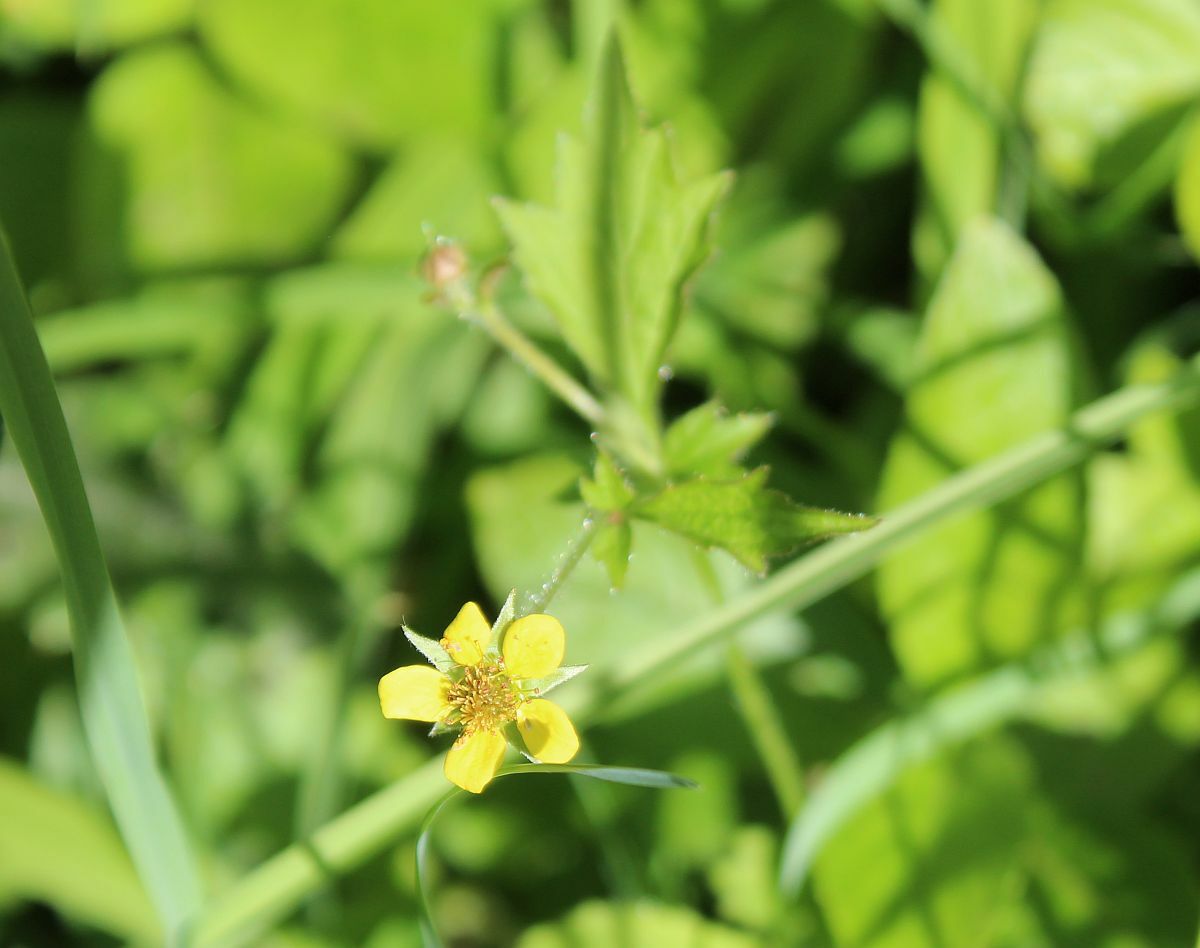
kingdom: Plantae
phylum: Tracheophyta
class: Magnoliopsida
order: Rosales
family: Rosaceae
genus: Geum
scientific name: Geum urbanum
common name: Wood avens
